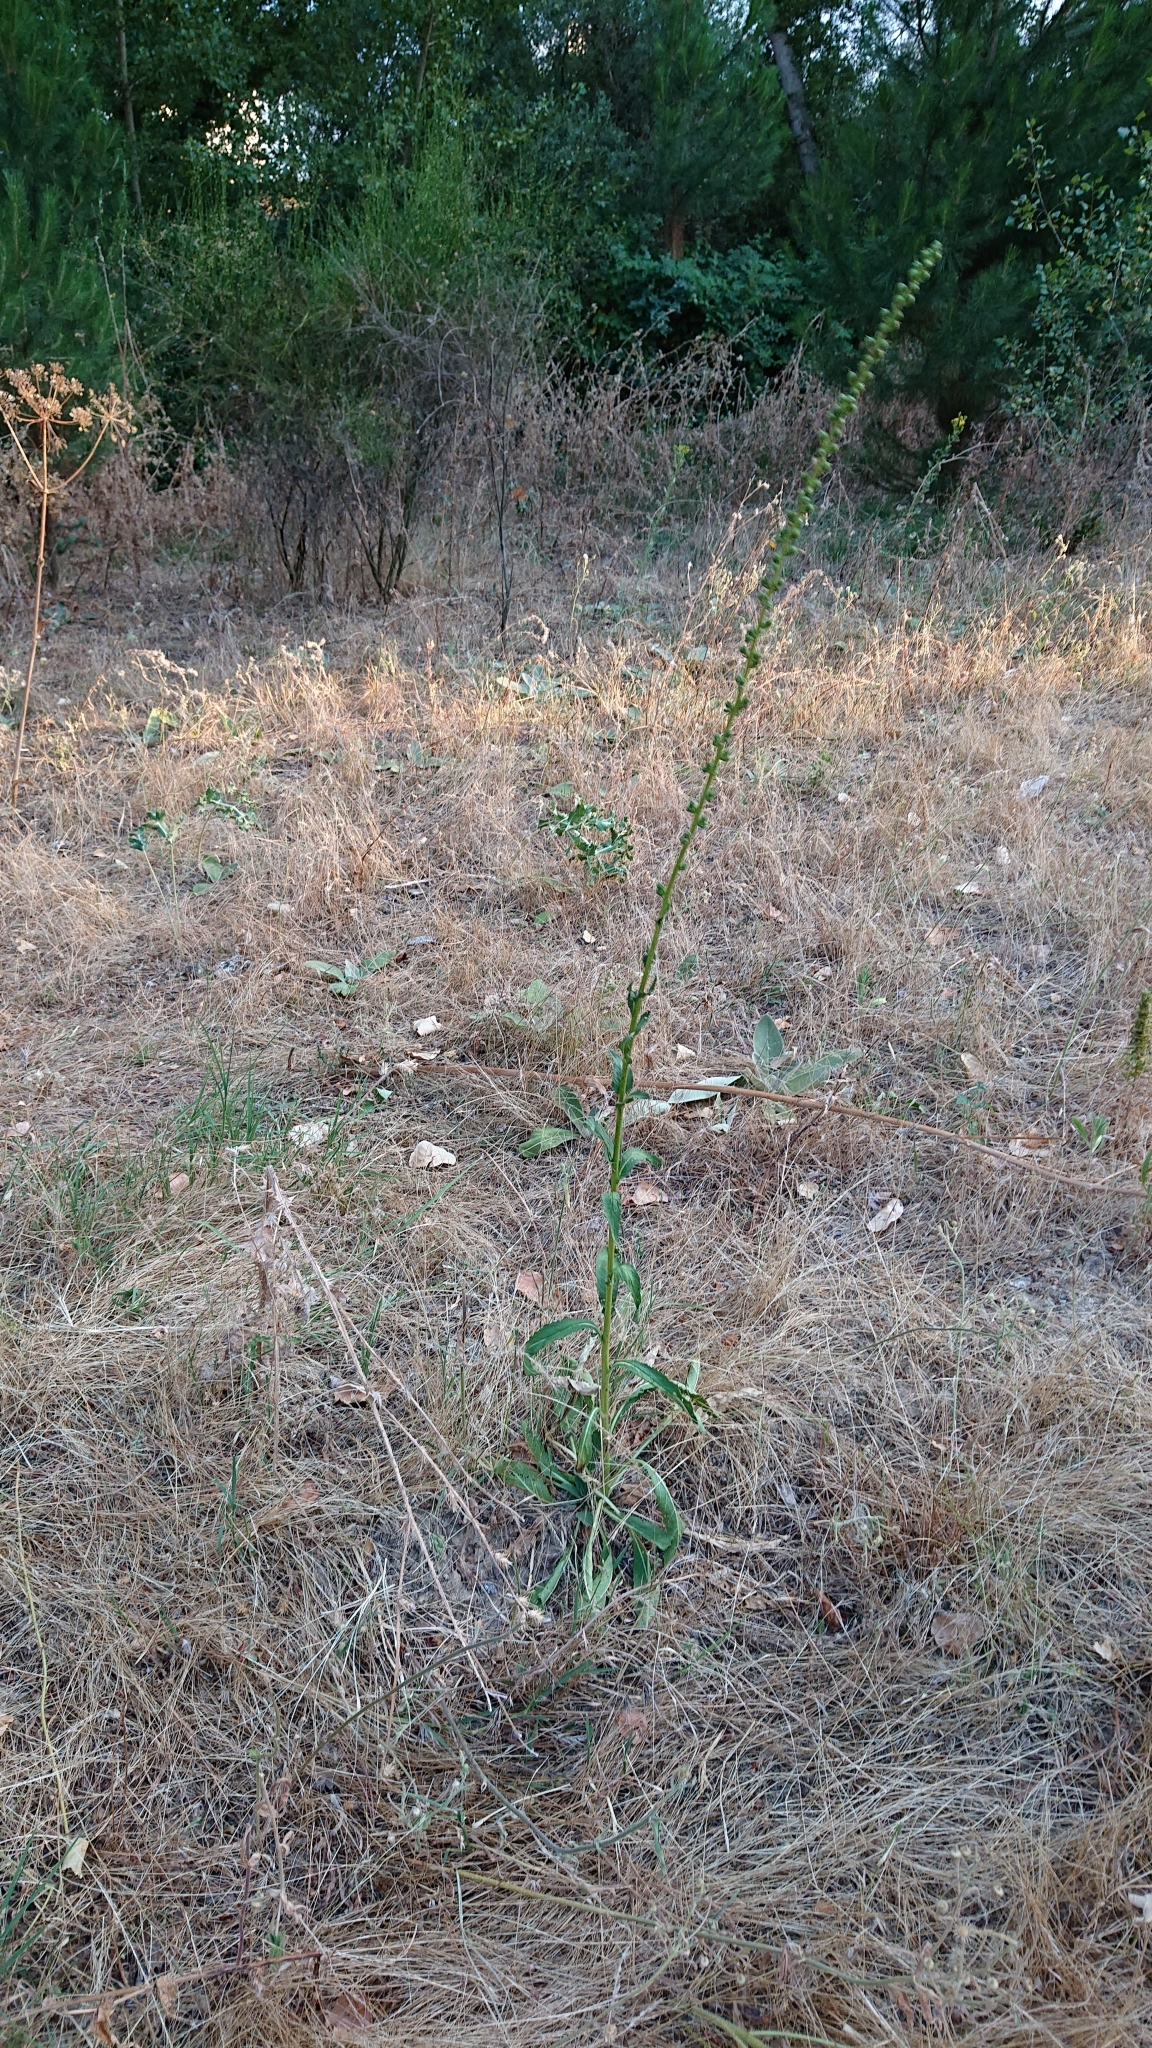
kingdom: Plantae
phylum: Tracheophyta
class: Magnoliopsida
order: Lamiales
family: Scrophulariaceae
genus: Verbascum
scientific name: Verbascum virgatum
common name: Twiggy mullein
